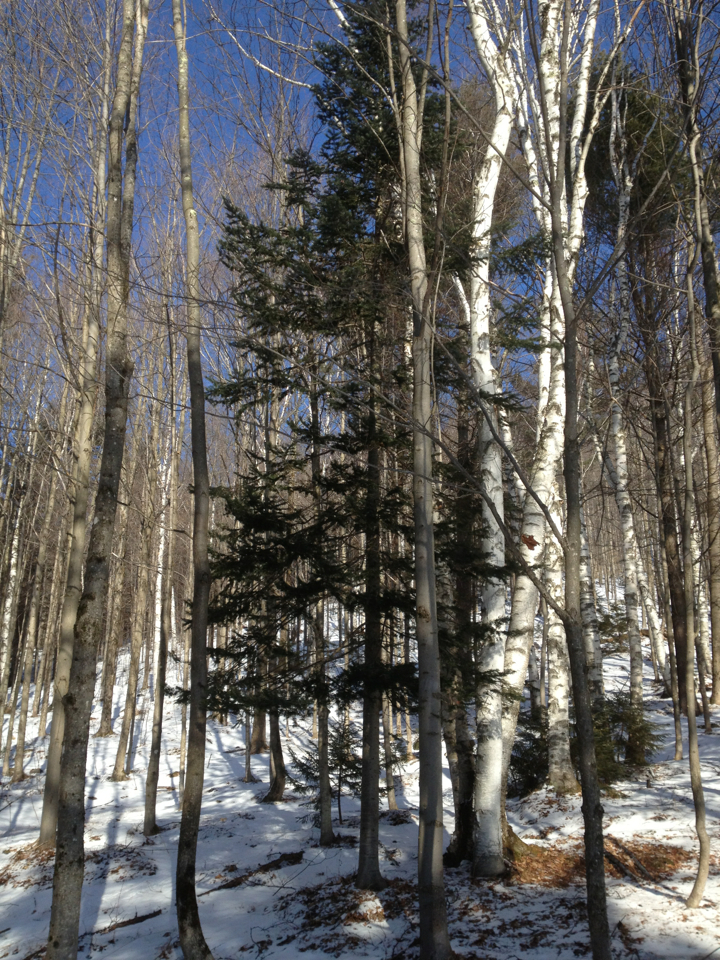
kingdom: Plantae
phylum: Tracheophyta
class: Pinopsida
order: Pinales
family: Pinaceae
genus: Picea
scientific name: Picea rubens
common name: Red spruce
